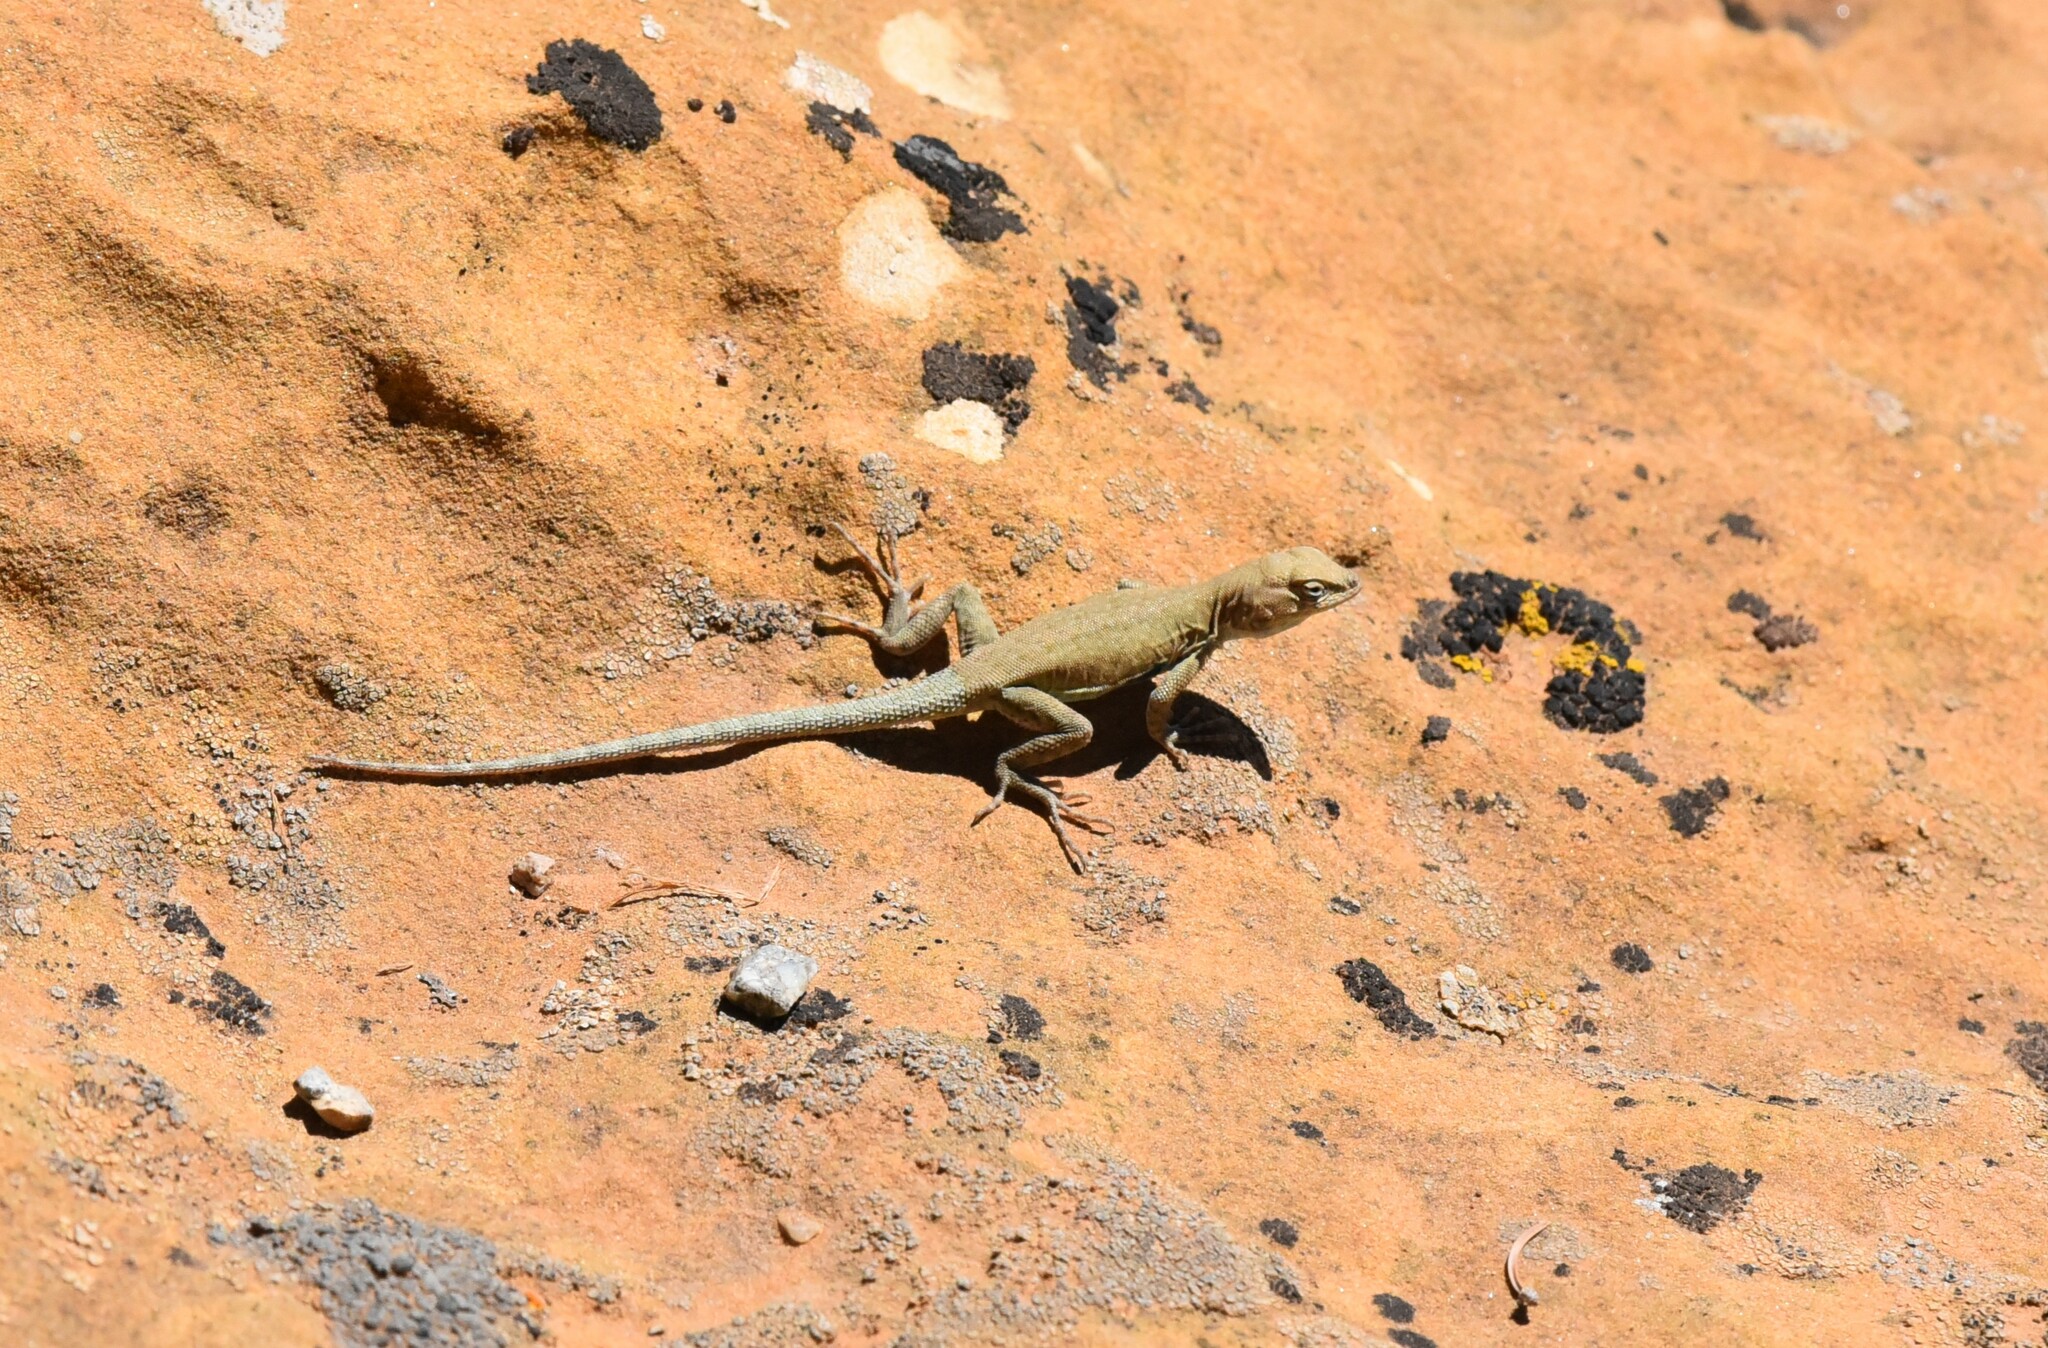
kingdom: Animalia
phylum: Chordata
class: Squamata
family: Phrynosomatidae
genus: Uta
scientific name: Uta stansburiana
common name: Side-blotched lizard
